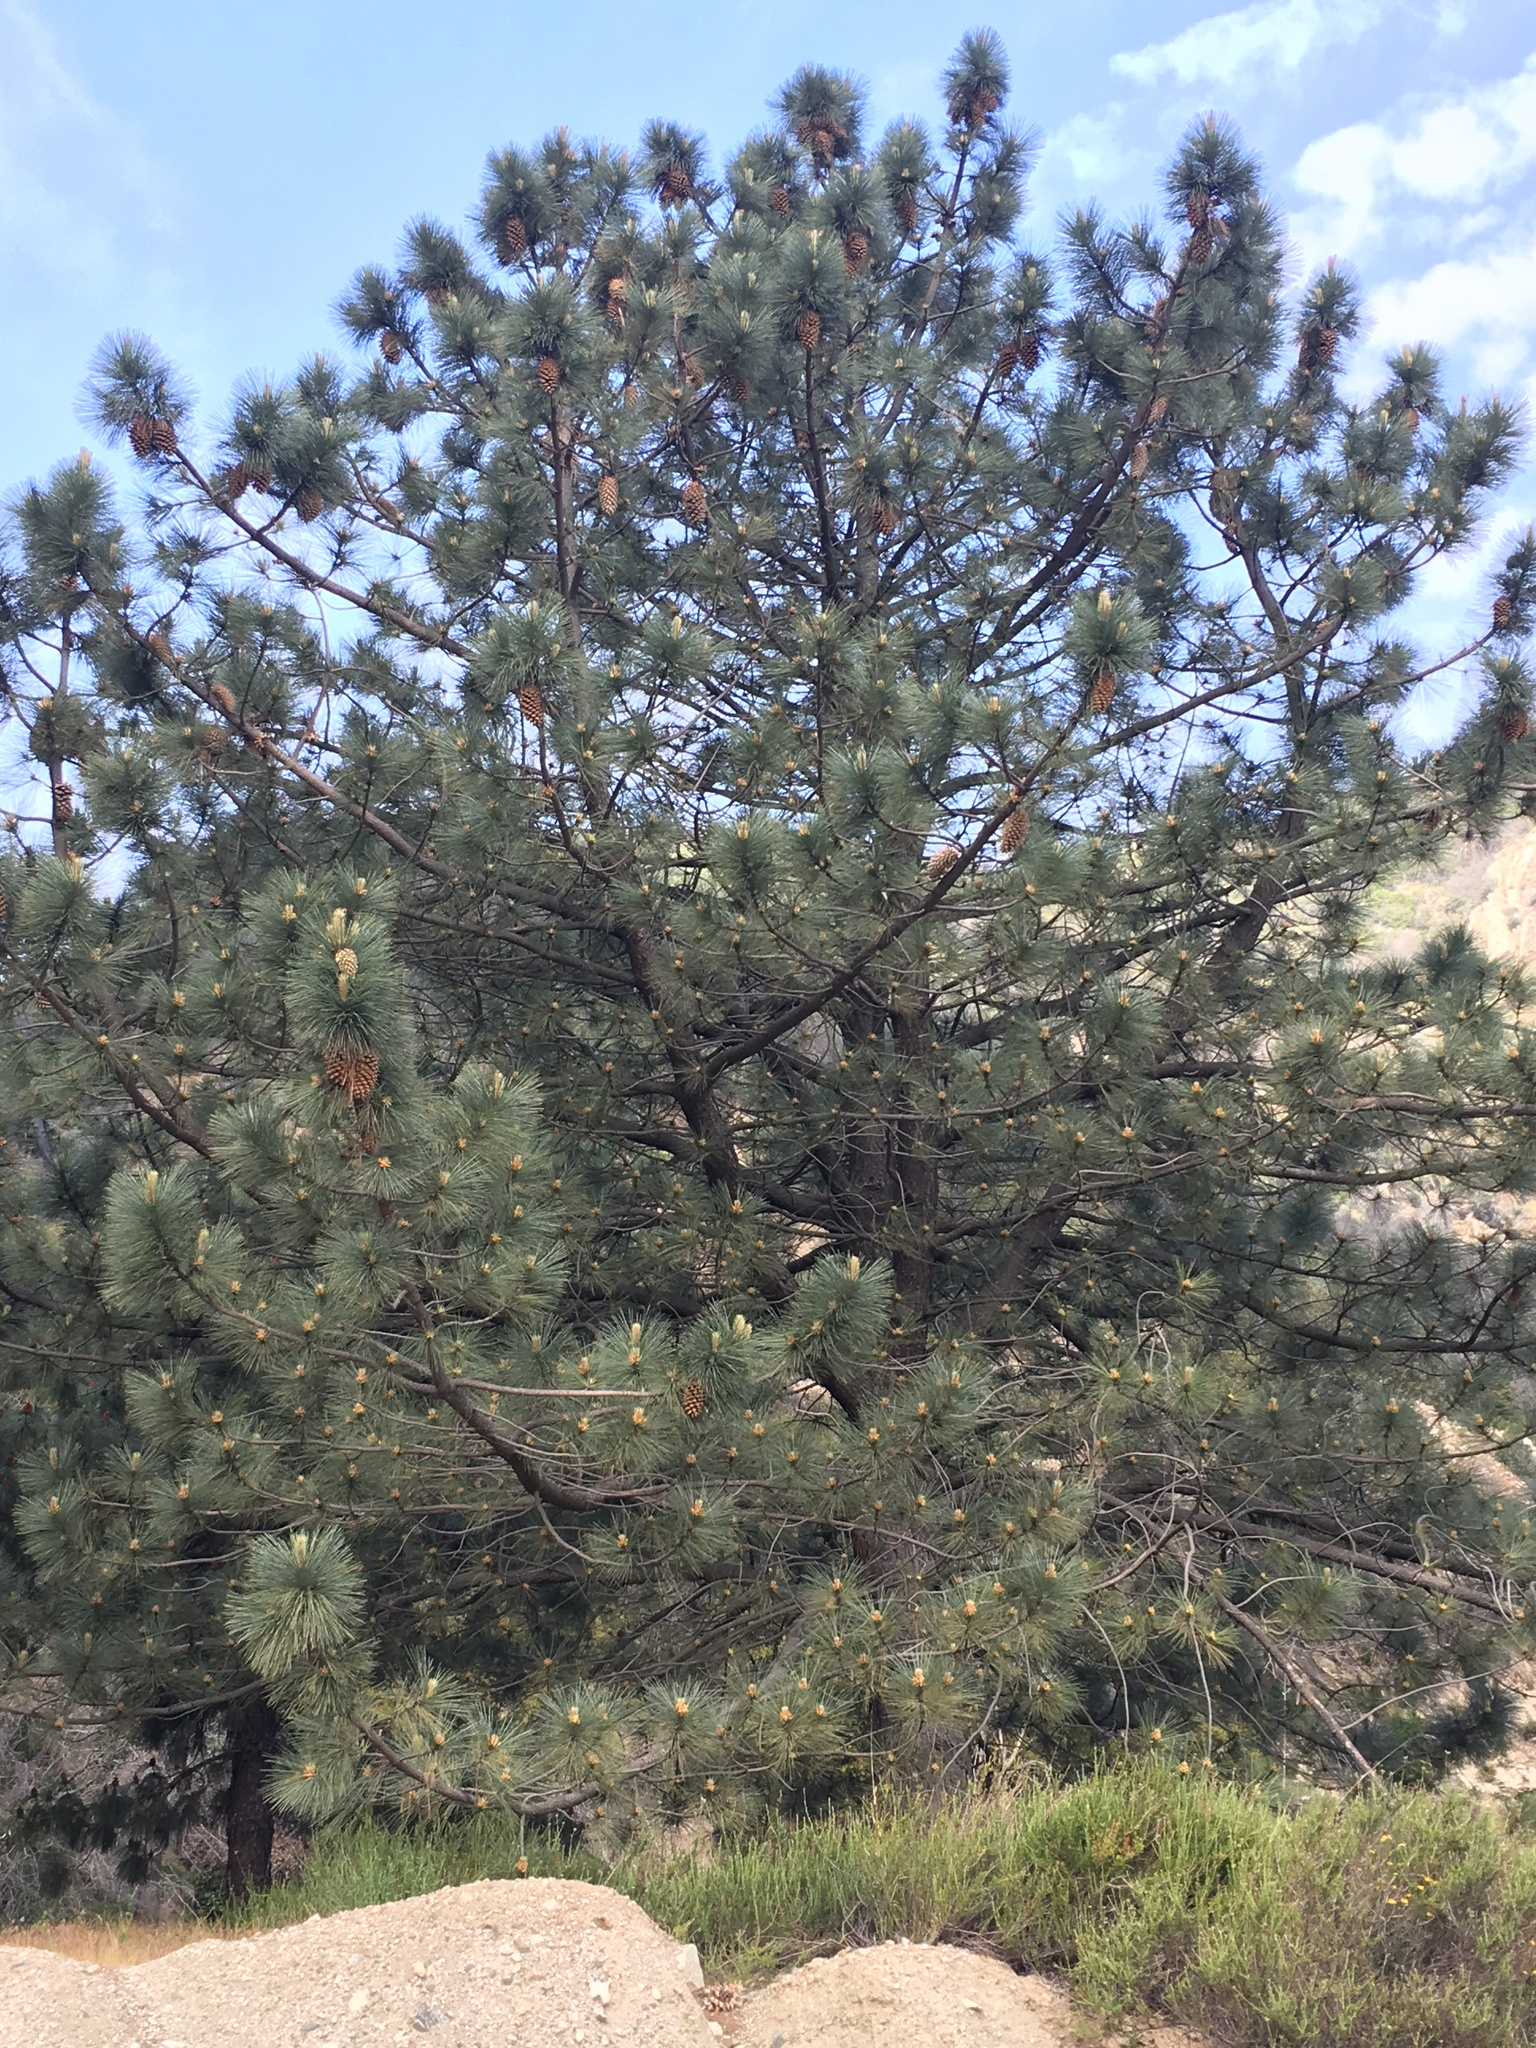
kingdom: Plantae
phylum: Tracheophyta
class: Pinopsida
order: Pinales
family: Pinaceae
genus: Pinus
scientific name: Pinus coulteri
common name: Coulter pine
